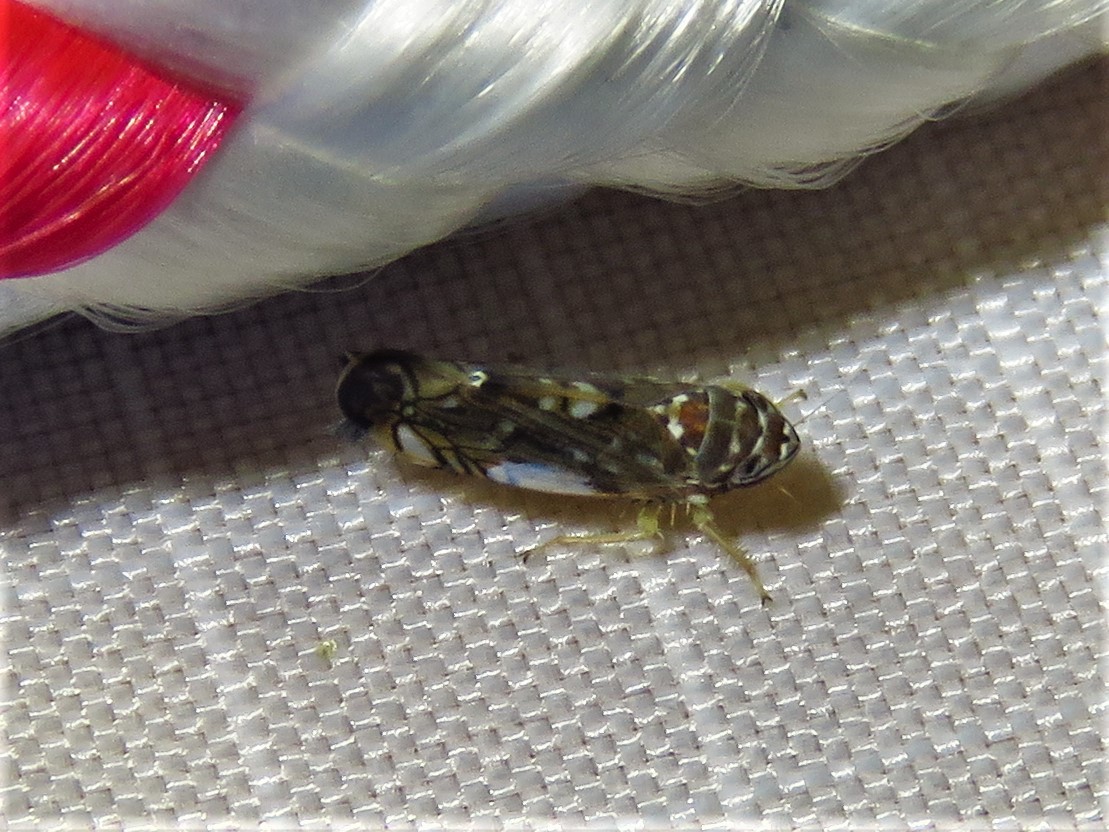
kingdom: Animalia
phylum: Arthropoda
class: Insecta
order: Hemiptera
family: Cicadellidae
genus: Scaphoideus
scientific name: Scaphoideus productus
